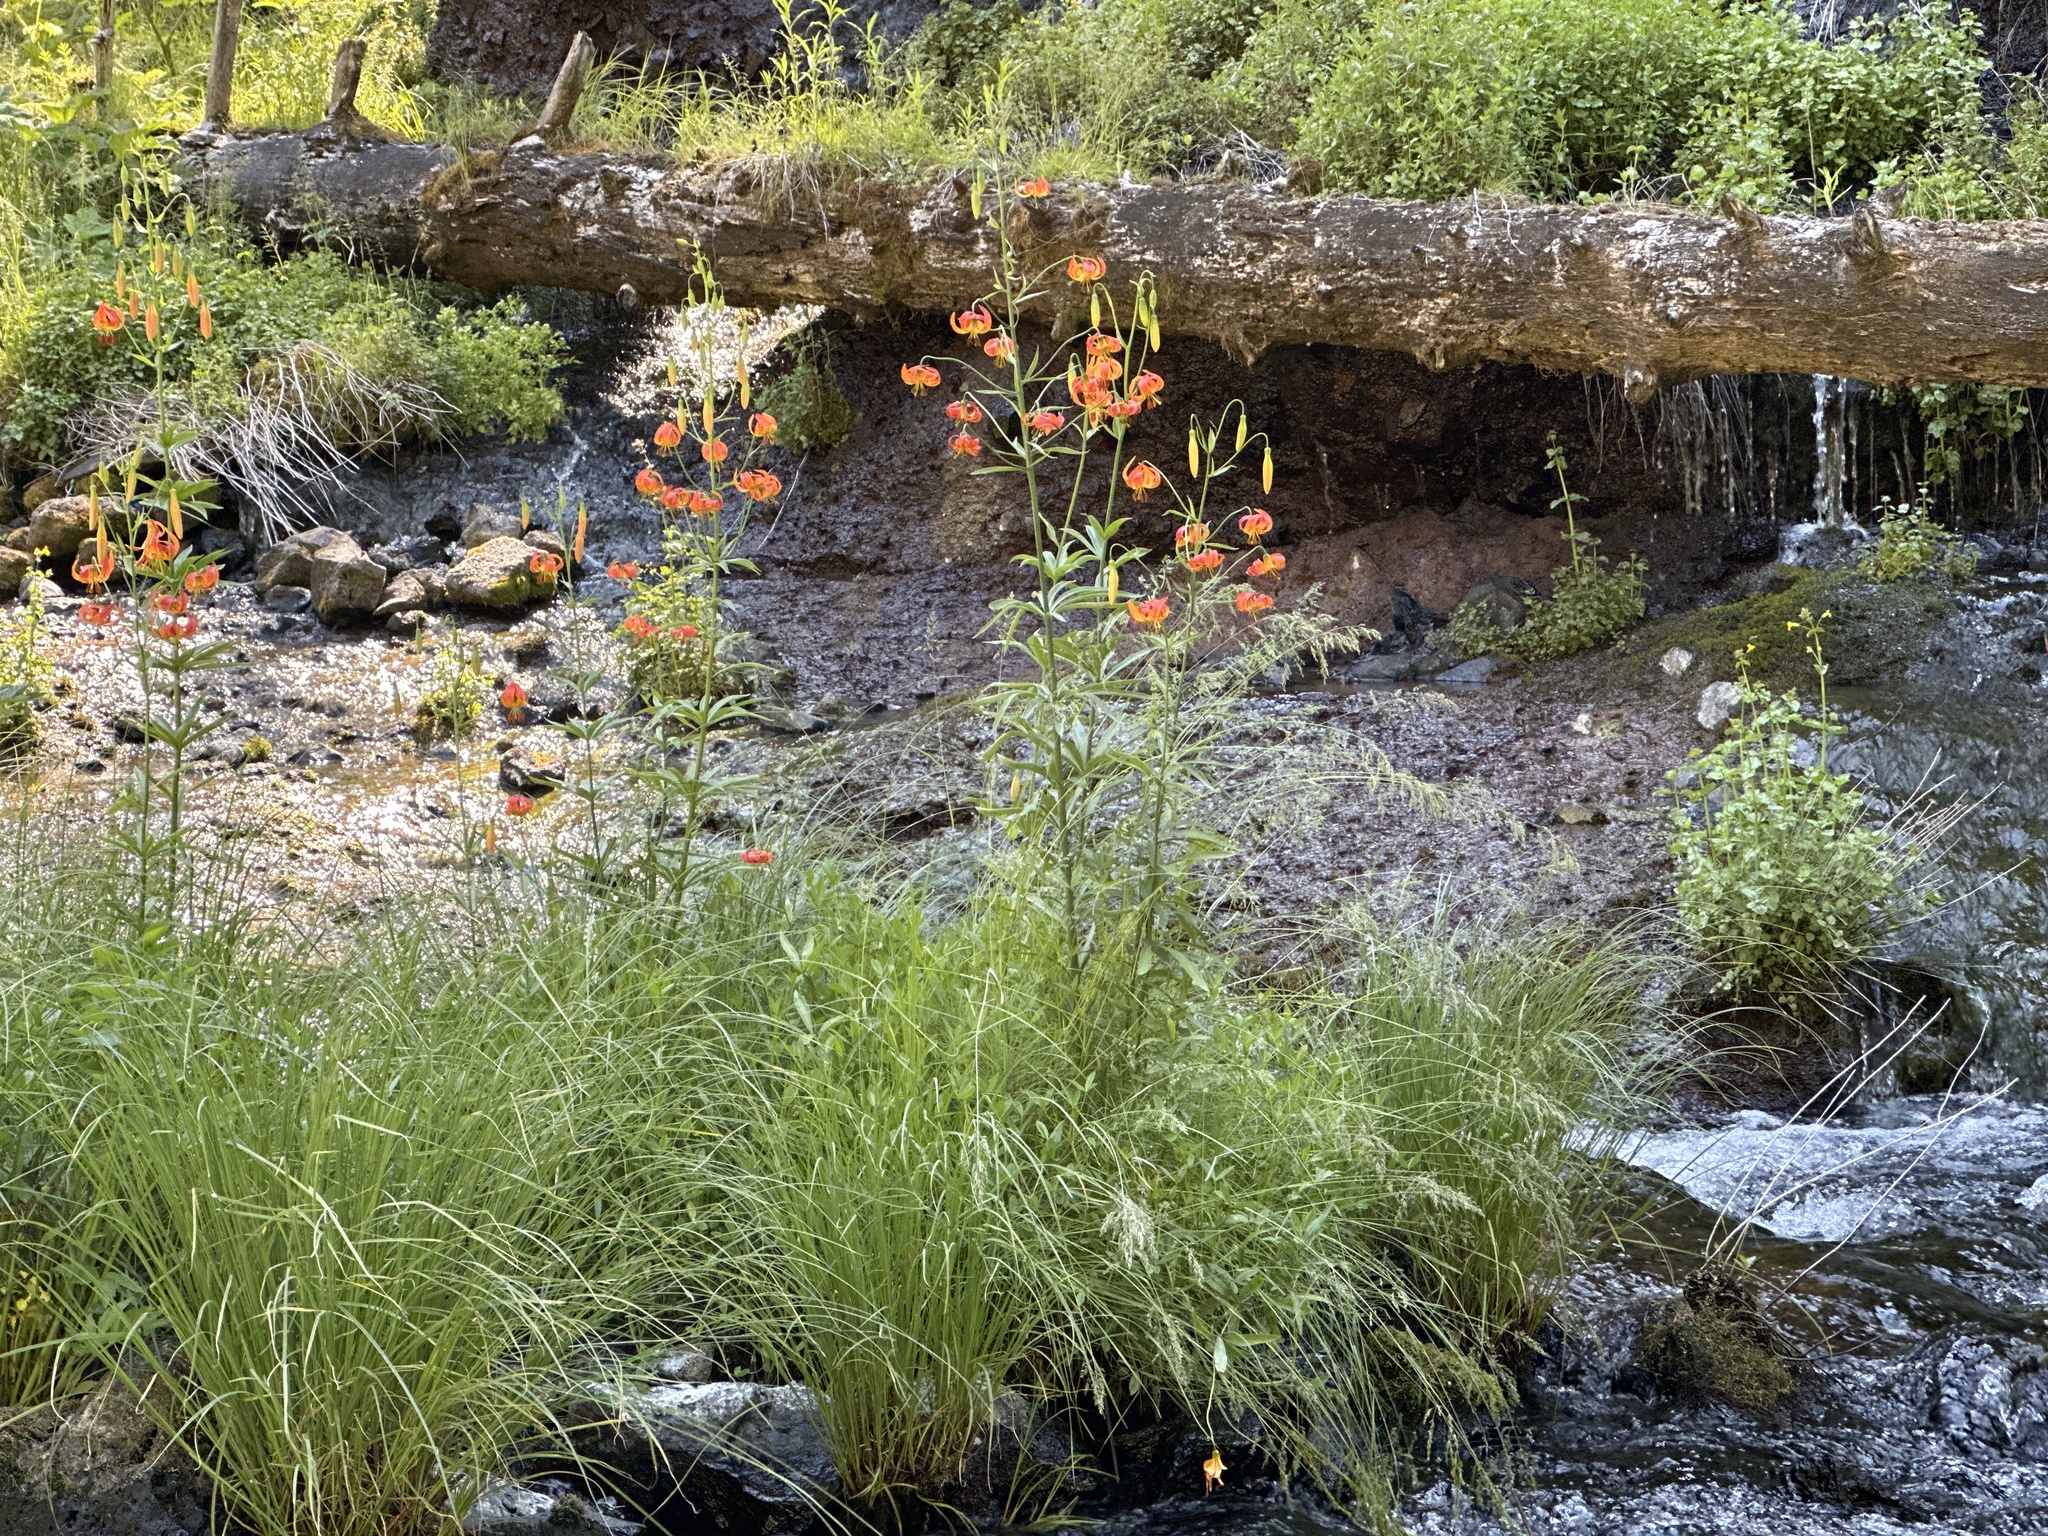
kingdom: Plantae
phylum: Tracheophyta
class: Liliopsida
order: Liliales
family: Liliaceae
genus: Lilium
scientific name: Lilium pardalinum
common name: Panther lily
